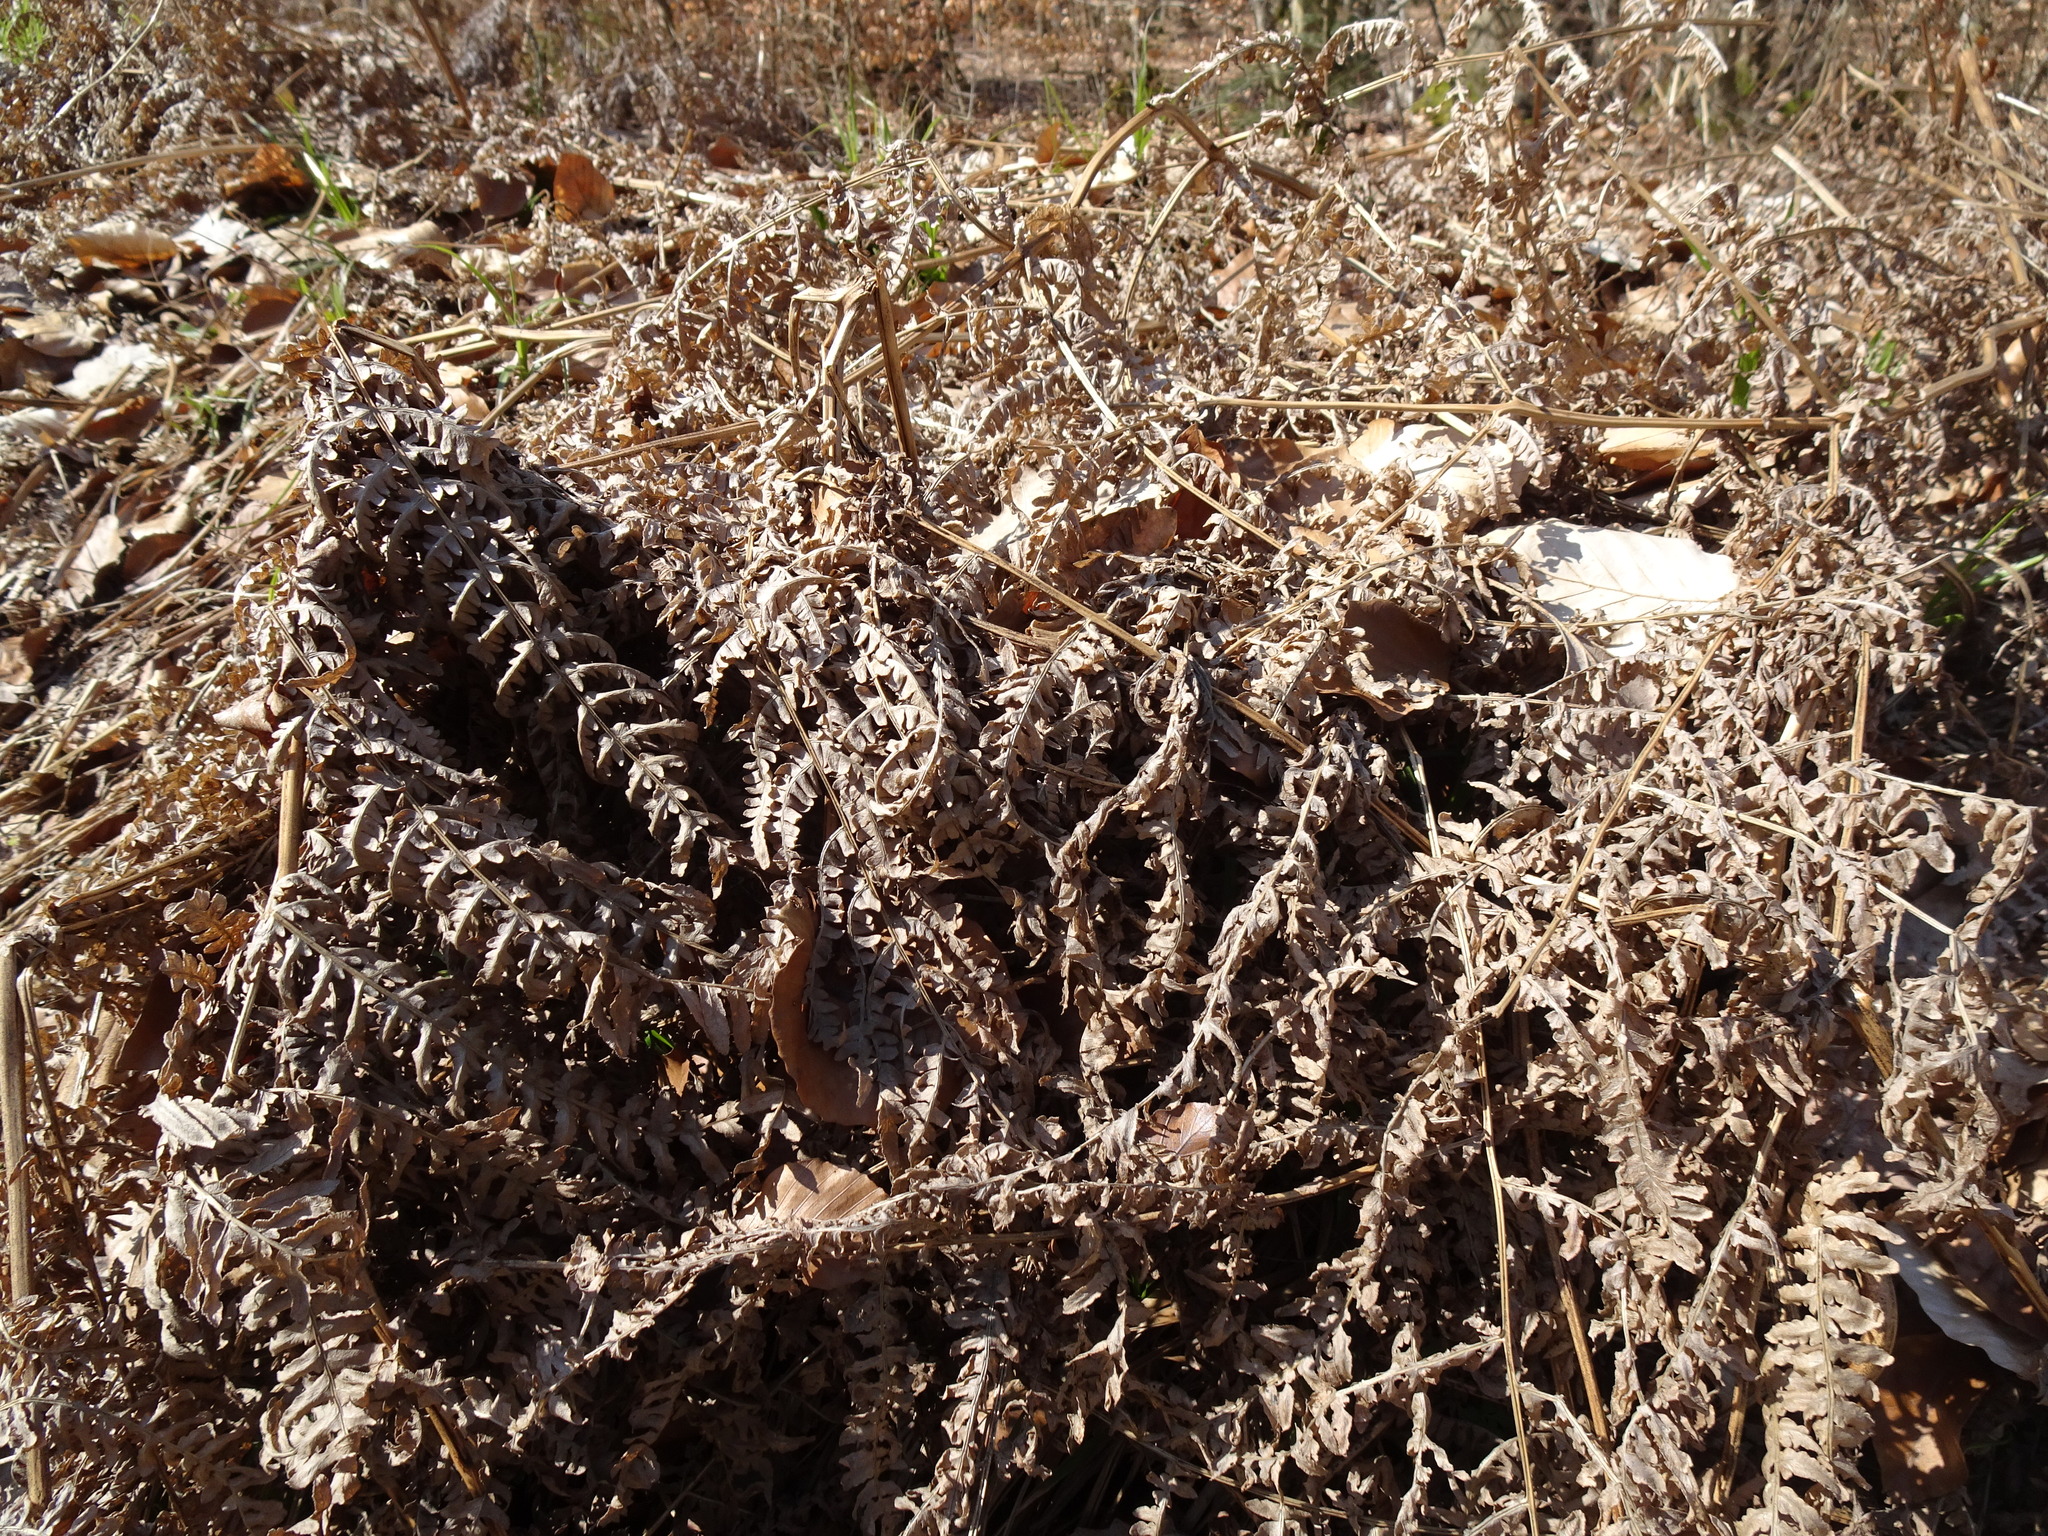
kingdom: Plantae
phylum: Tracheophyta
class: Polypodiopsida
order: Polypodiales
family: Dennstaedtiaceae
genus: Pteridium
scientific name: Pteridium aquilinum
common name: Bracken
